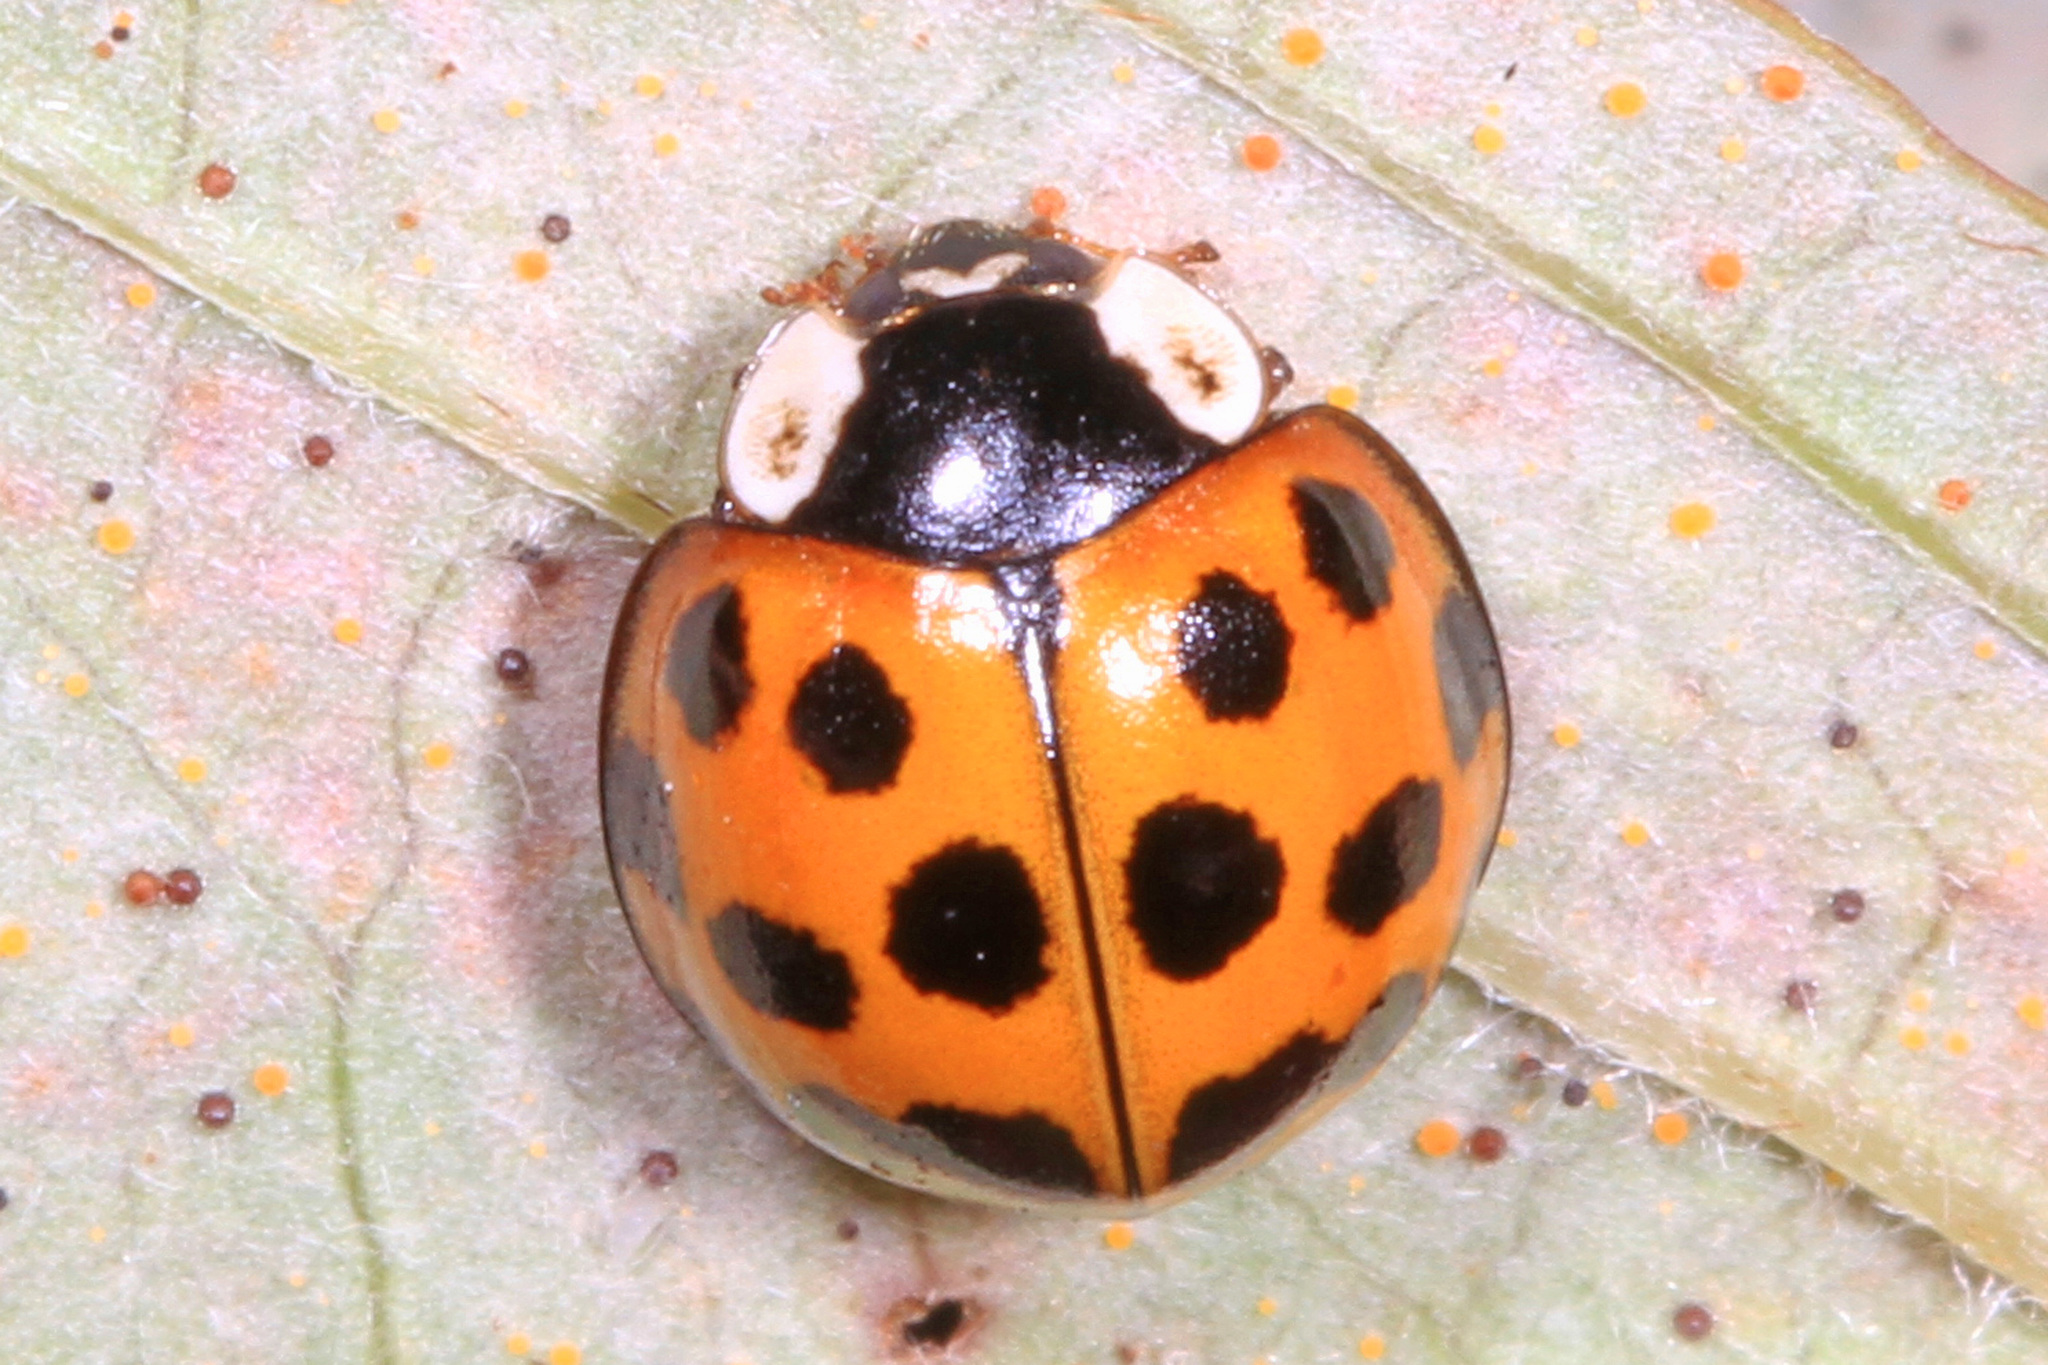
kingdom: Animalia
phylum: Arthropoda
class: Insecta
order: Coleoptera
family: Coccinellidae
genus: Harmonia
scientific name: Harmonia axyridis
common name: Harlequin ladybird
